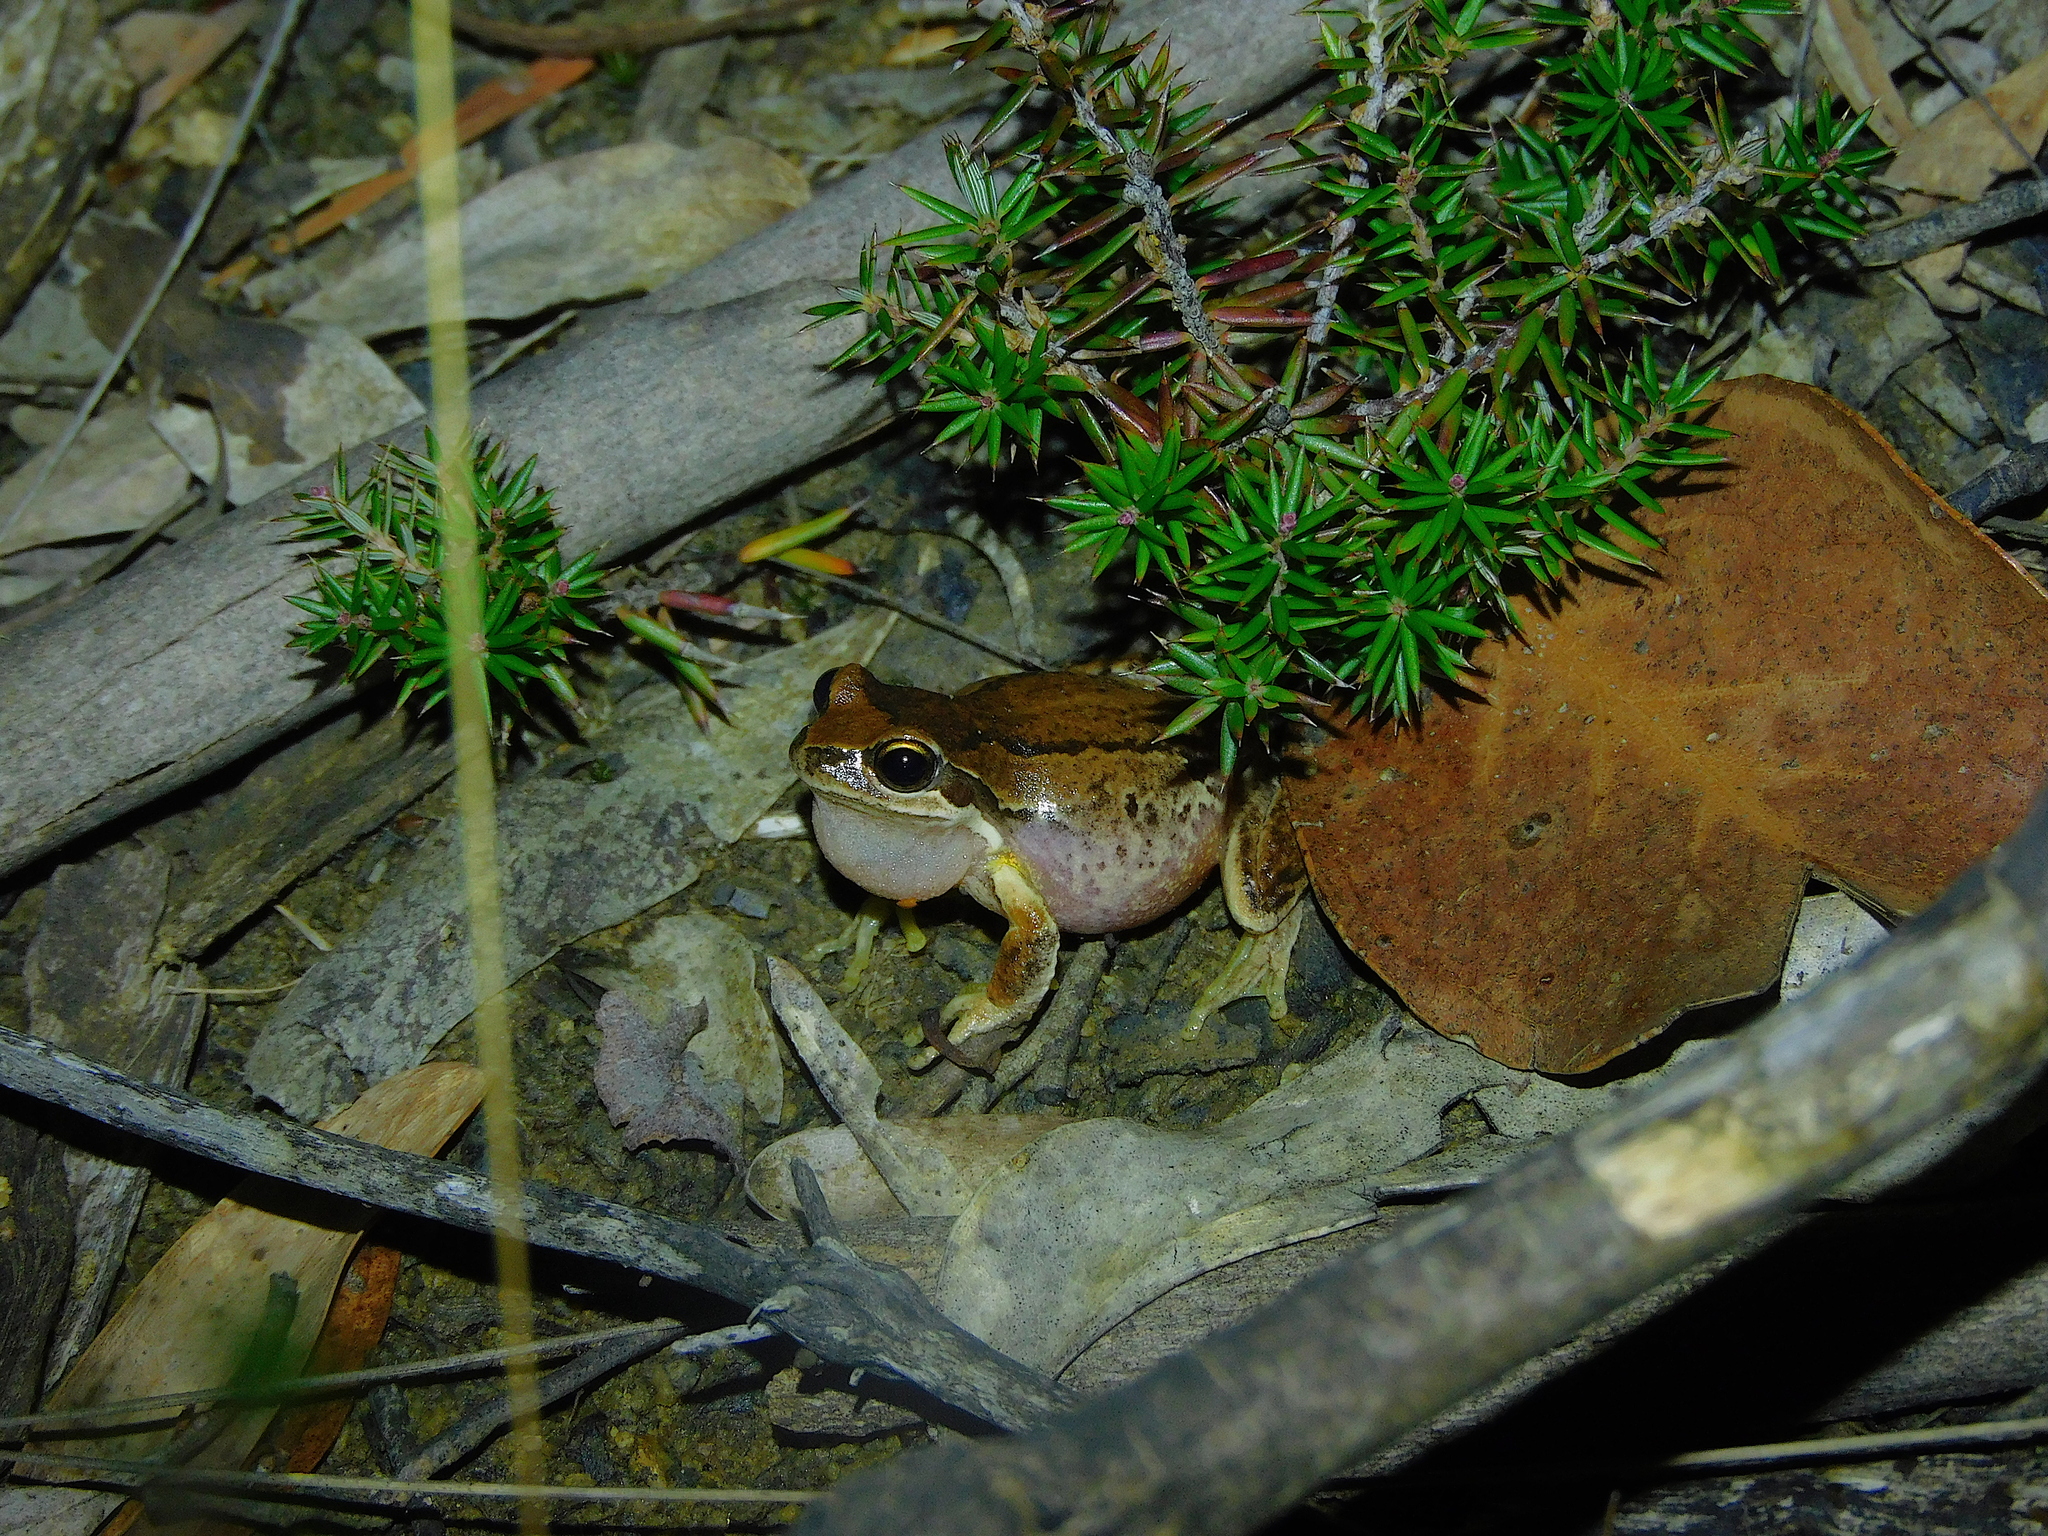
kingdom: Animalia
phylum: Chordata
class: Amphibia
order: Anura
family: Pelodryadidae
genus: Litoria
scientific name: Litoria ewingii
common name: Southern brown tree frog
